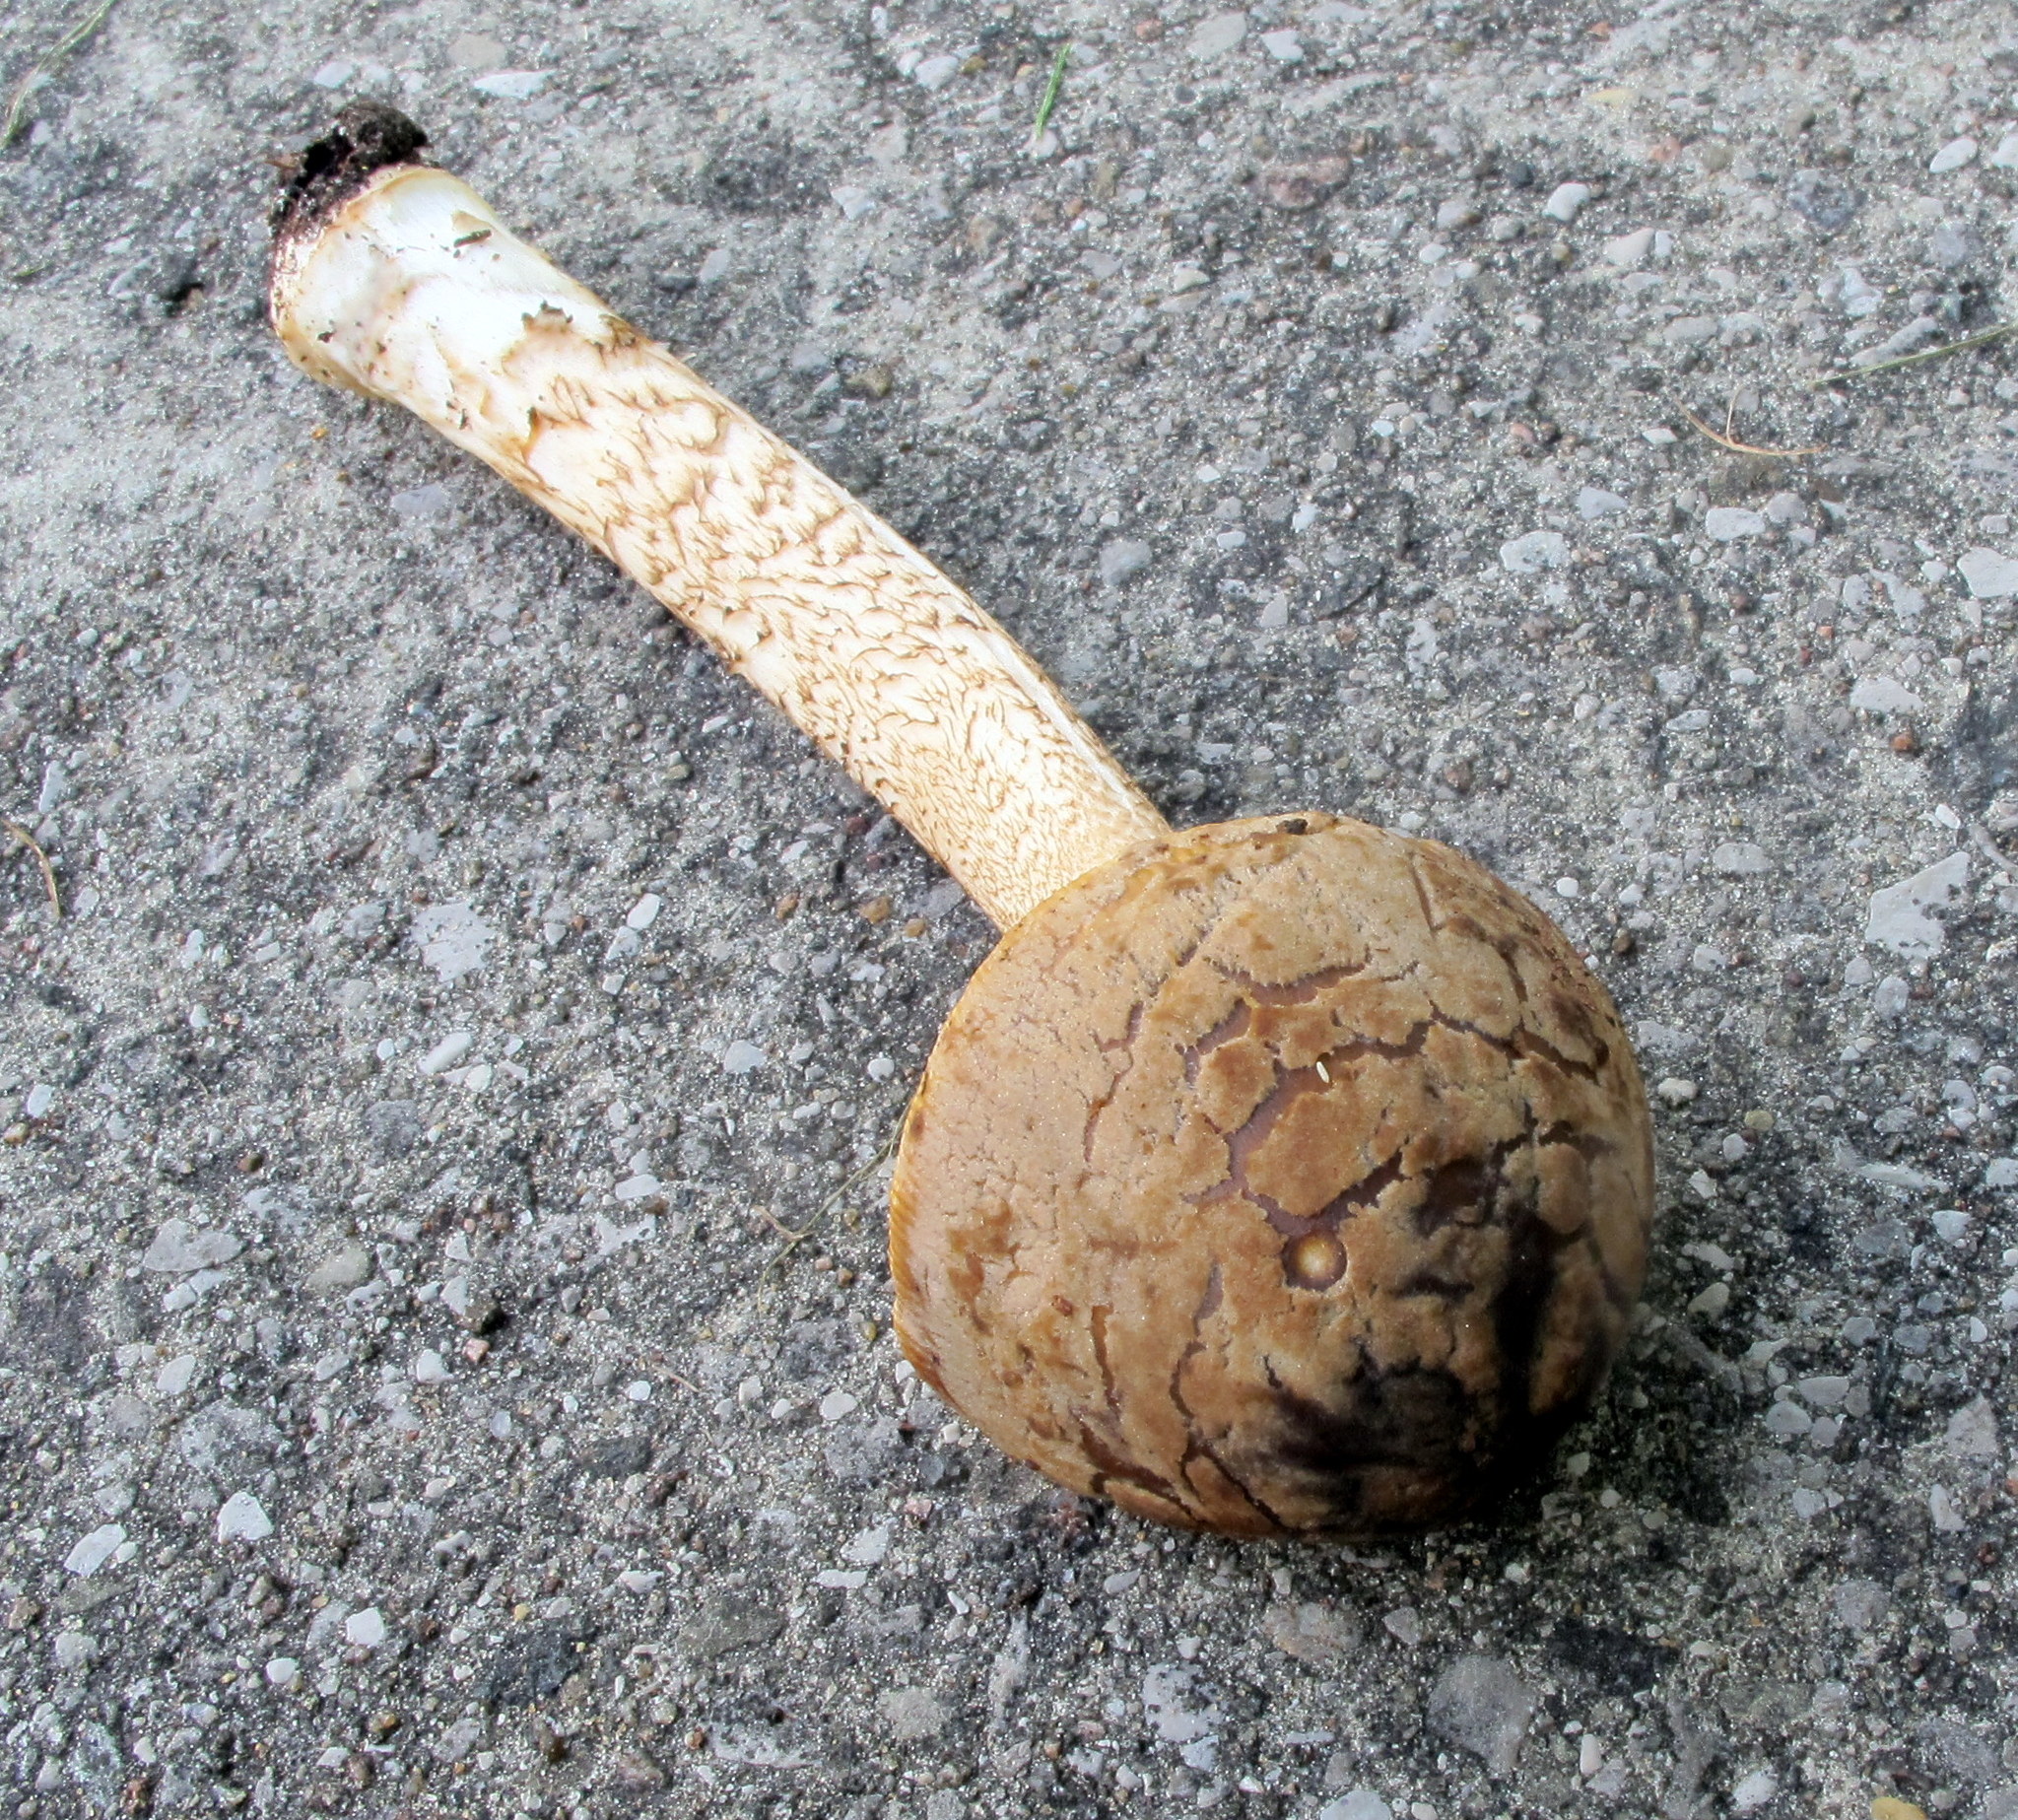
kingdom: Fungi
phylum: Basidiomycota
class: Agaricomycetes
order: Agaricales
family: Amanitaceae
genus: Amanita
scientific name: Amanita variicolor
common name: Piebald ringless amanita
